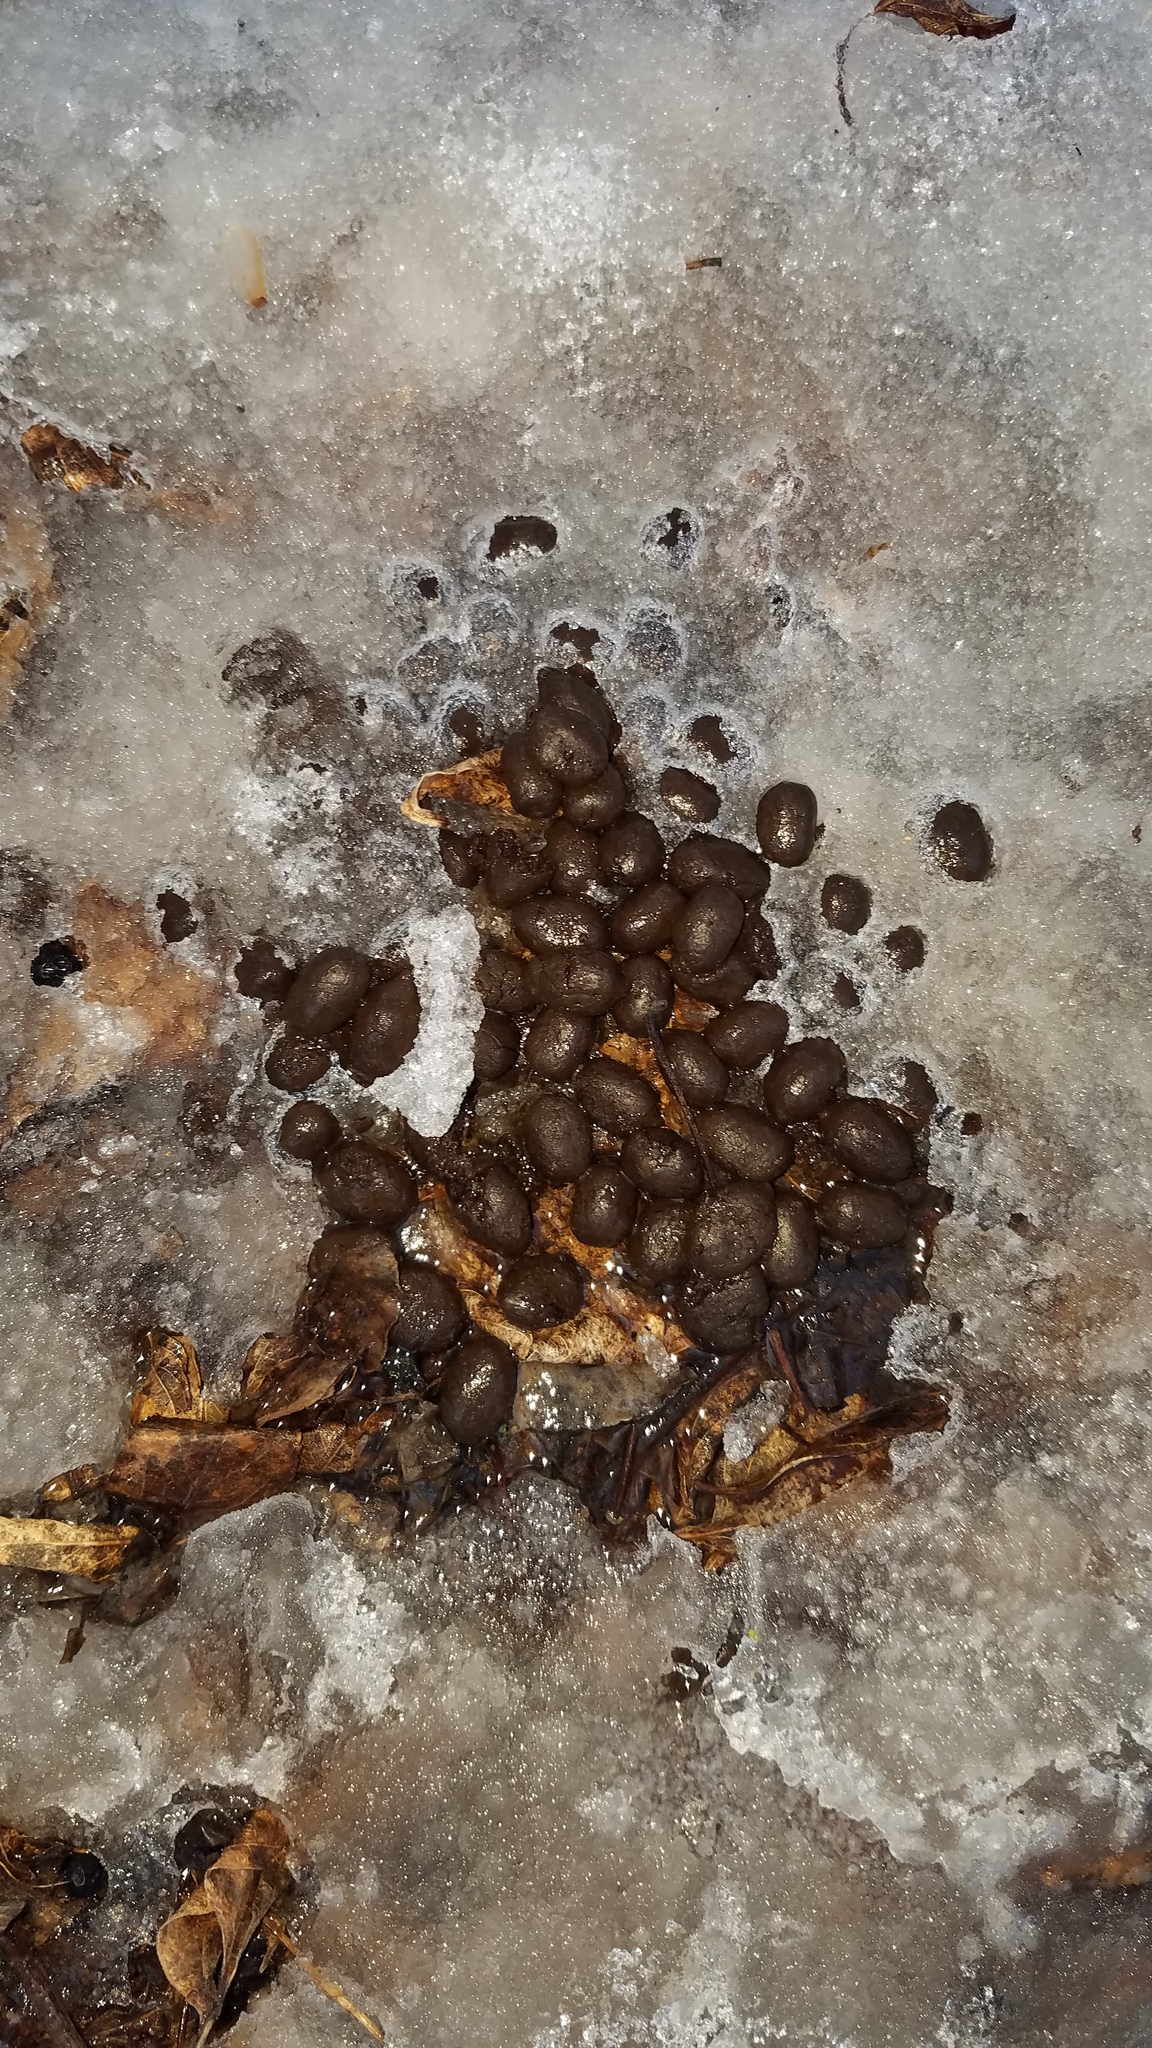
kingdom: Animalia
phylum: Chordata
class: Mammalia
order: Artiodactyla
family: Cervidae
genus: Odocoileus
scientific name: Odocoileus virginianus
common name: White-tailed deer
